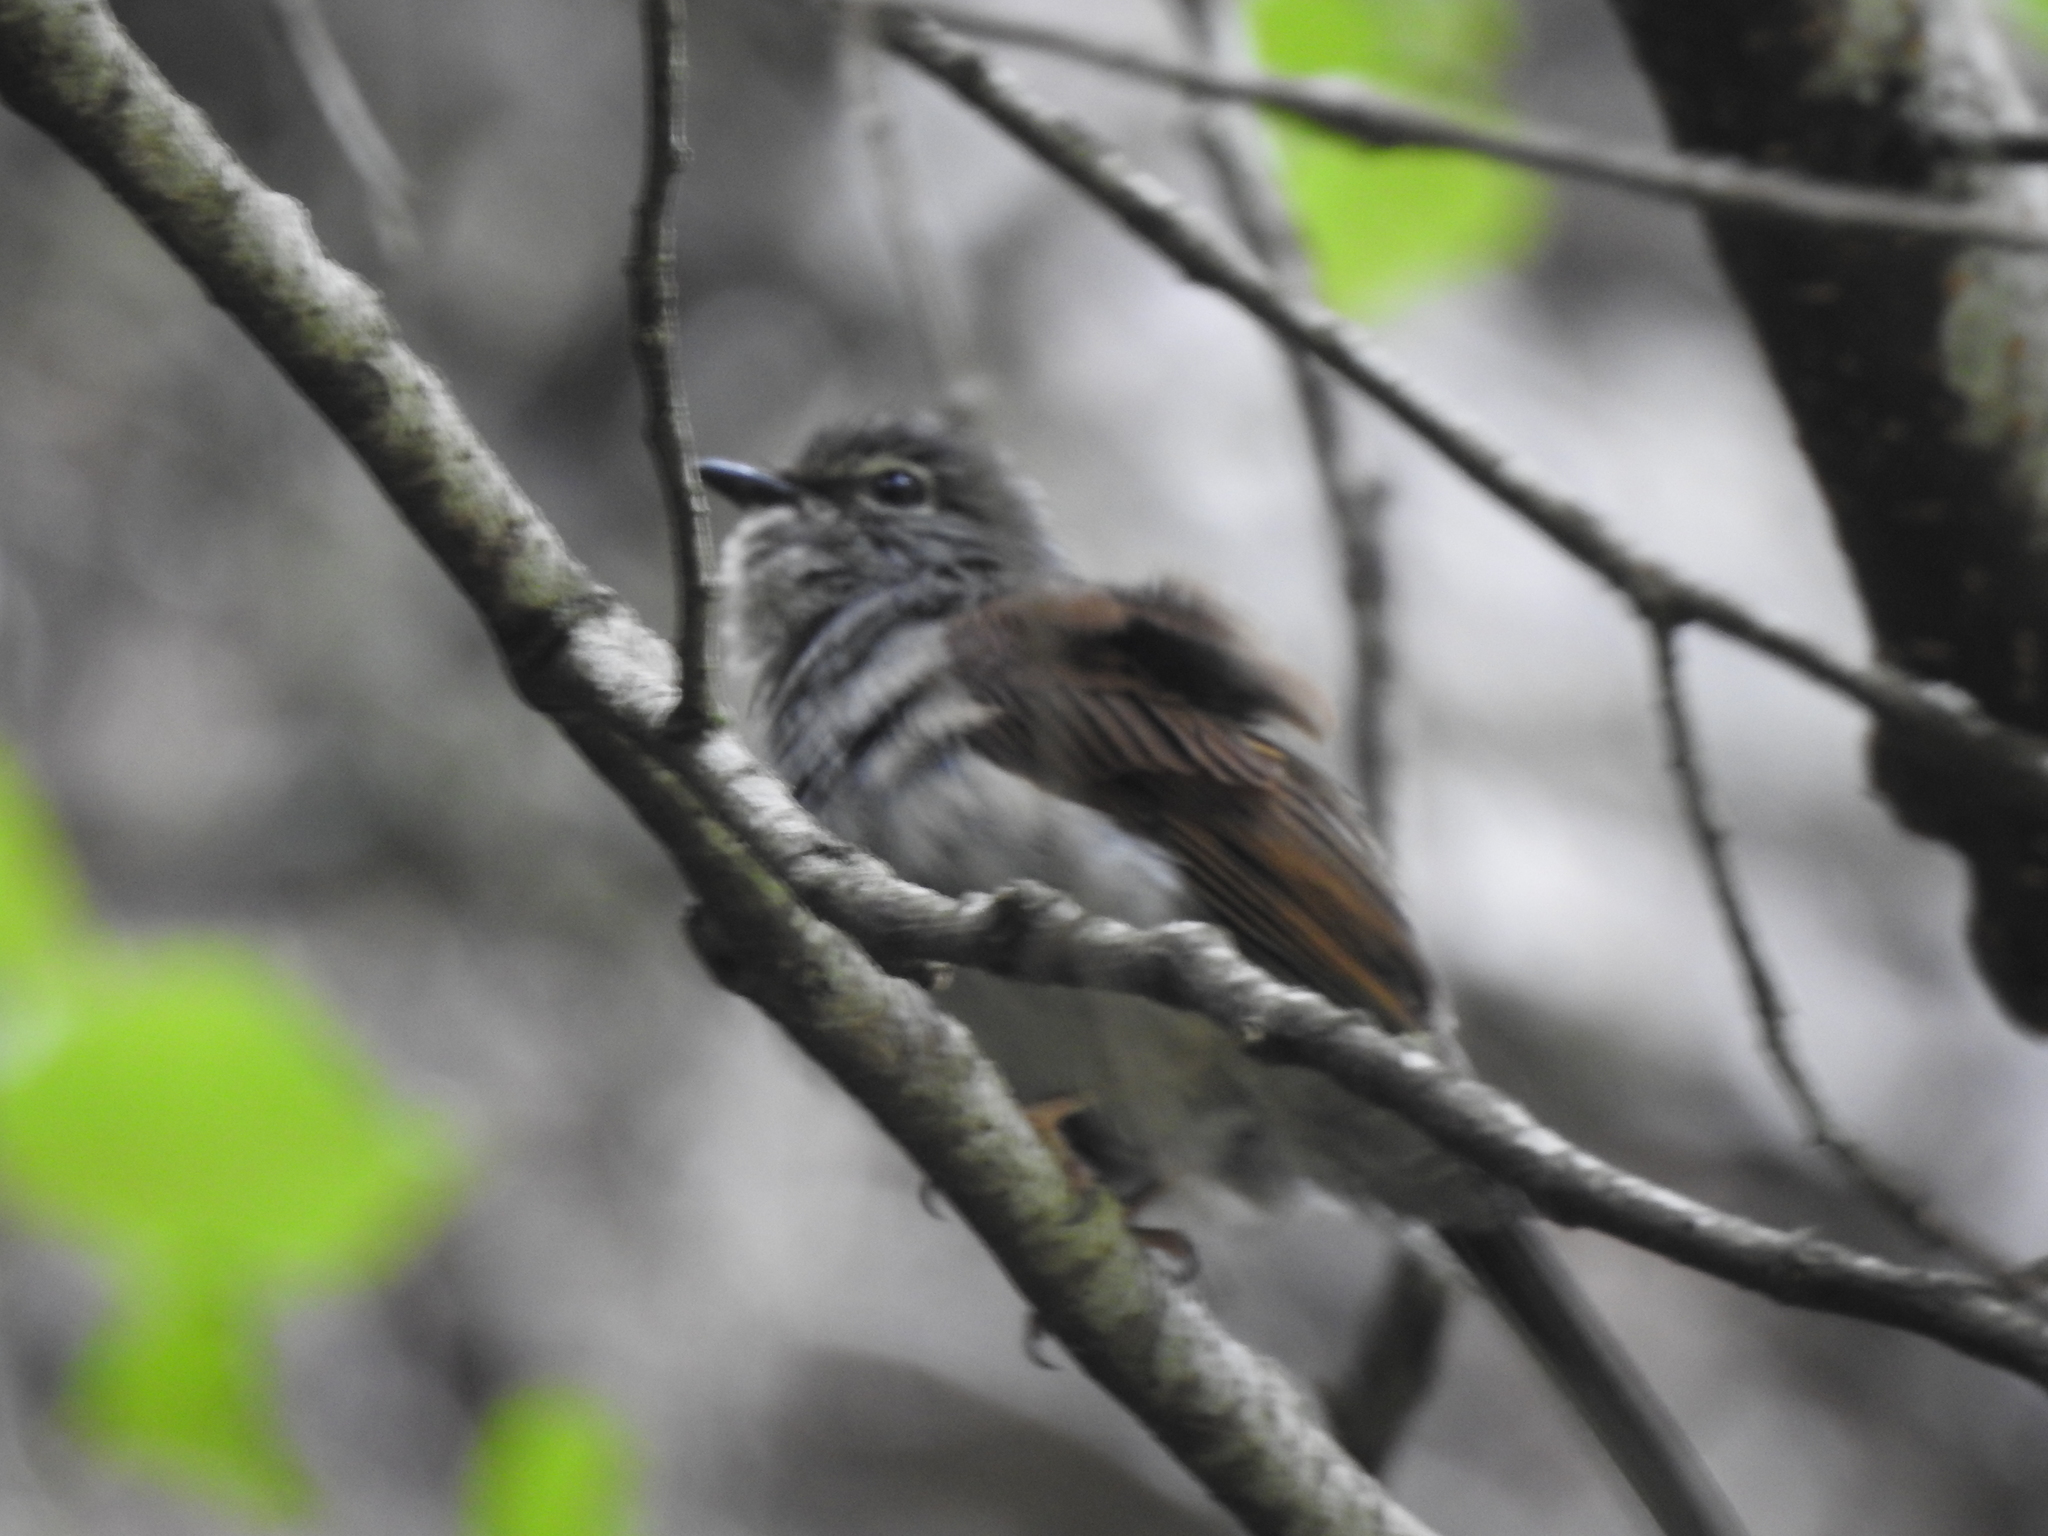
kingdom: Animalia
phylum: Chordata
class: Aves
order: Passeriformes
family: Turdidae
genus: Myadestes
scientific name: Myadestes occidentalis
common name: Brown-backed solitaire
